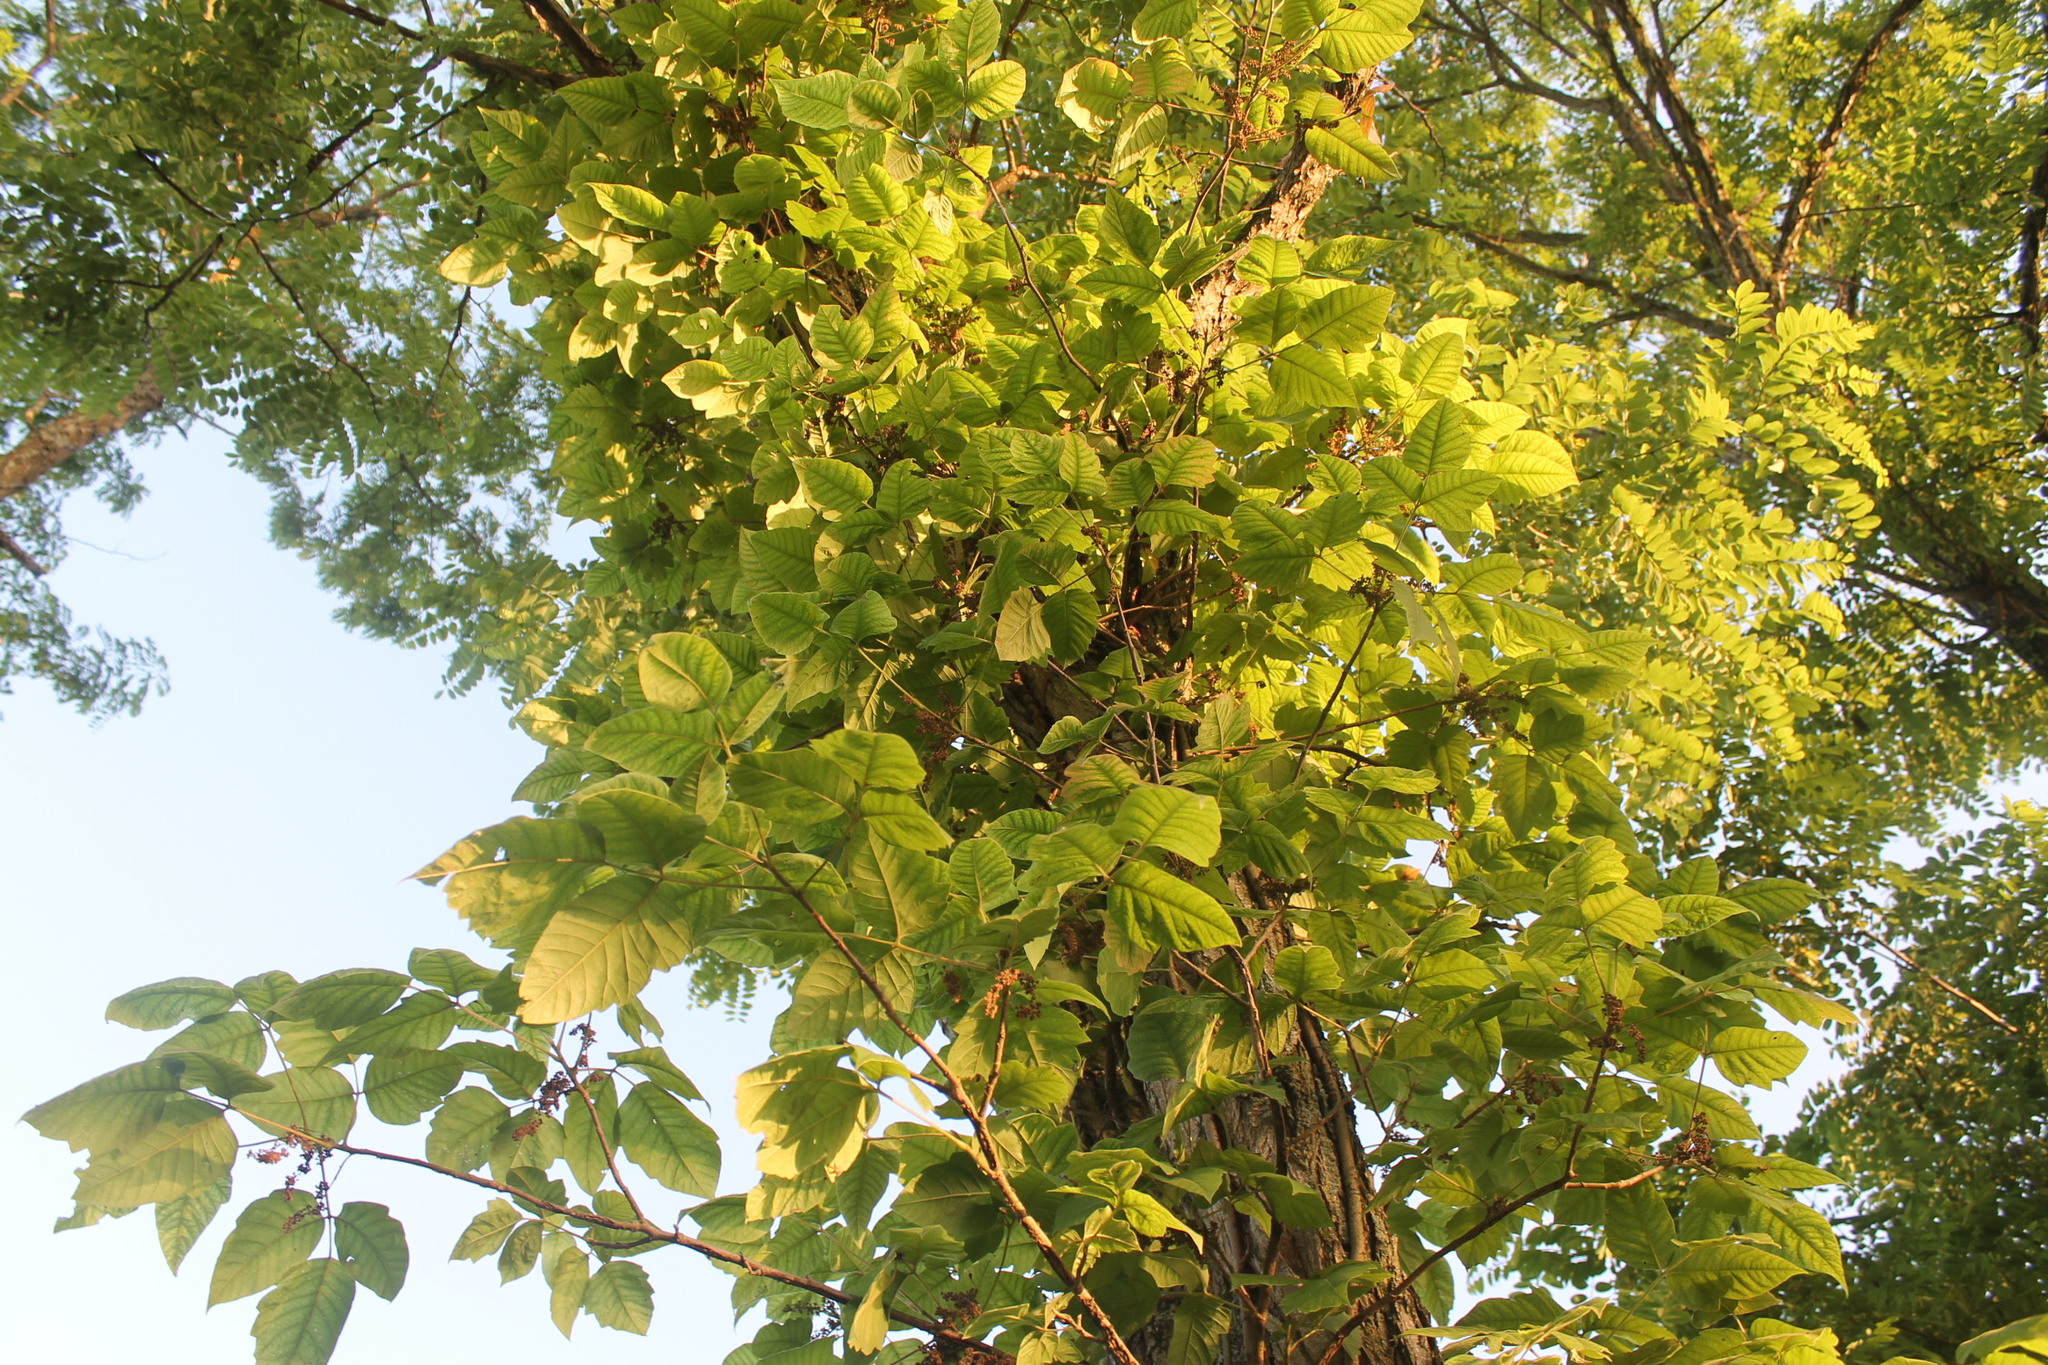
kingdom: Plantae
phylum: Tracheophyta
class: Magnoliopsida
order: Sapindales
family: Anacardiaceae
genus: Toxicodendron
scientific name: Toxicodendron radicans
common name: Poison ivy
